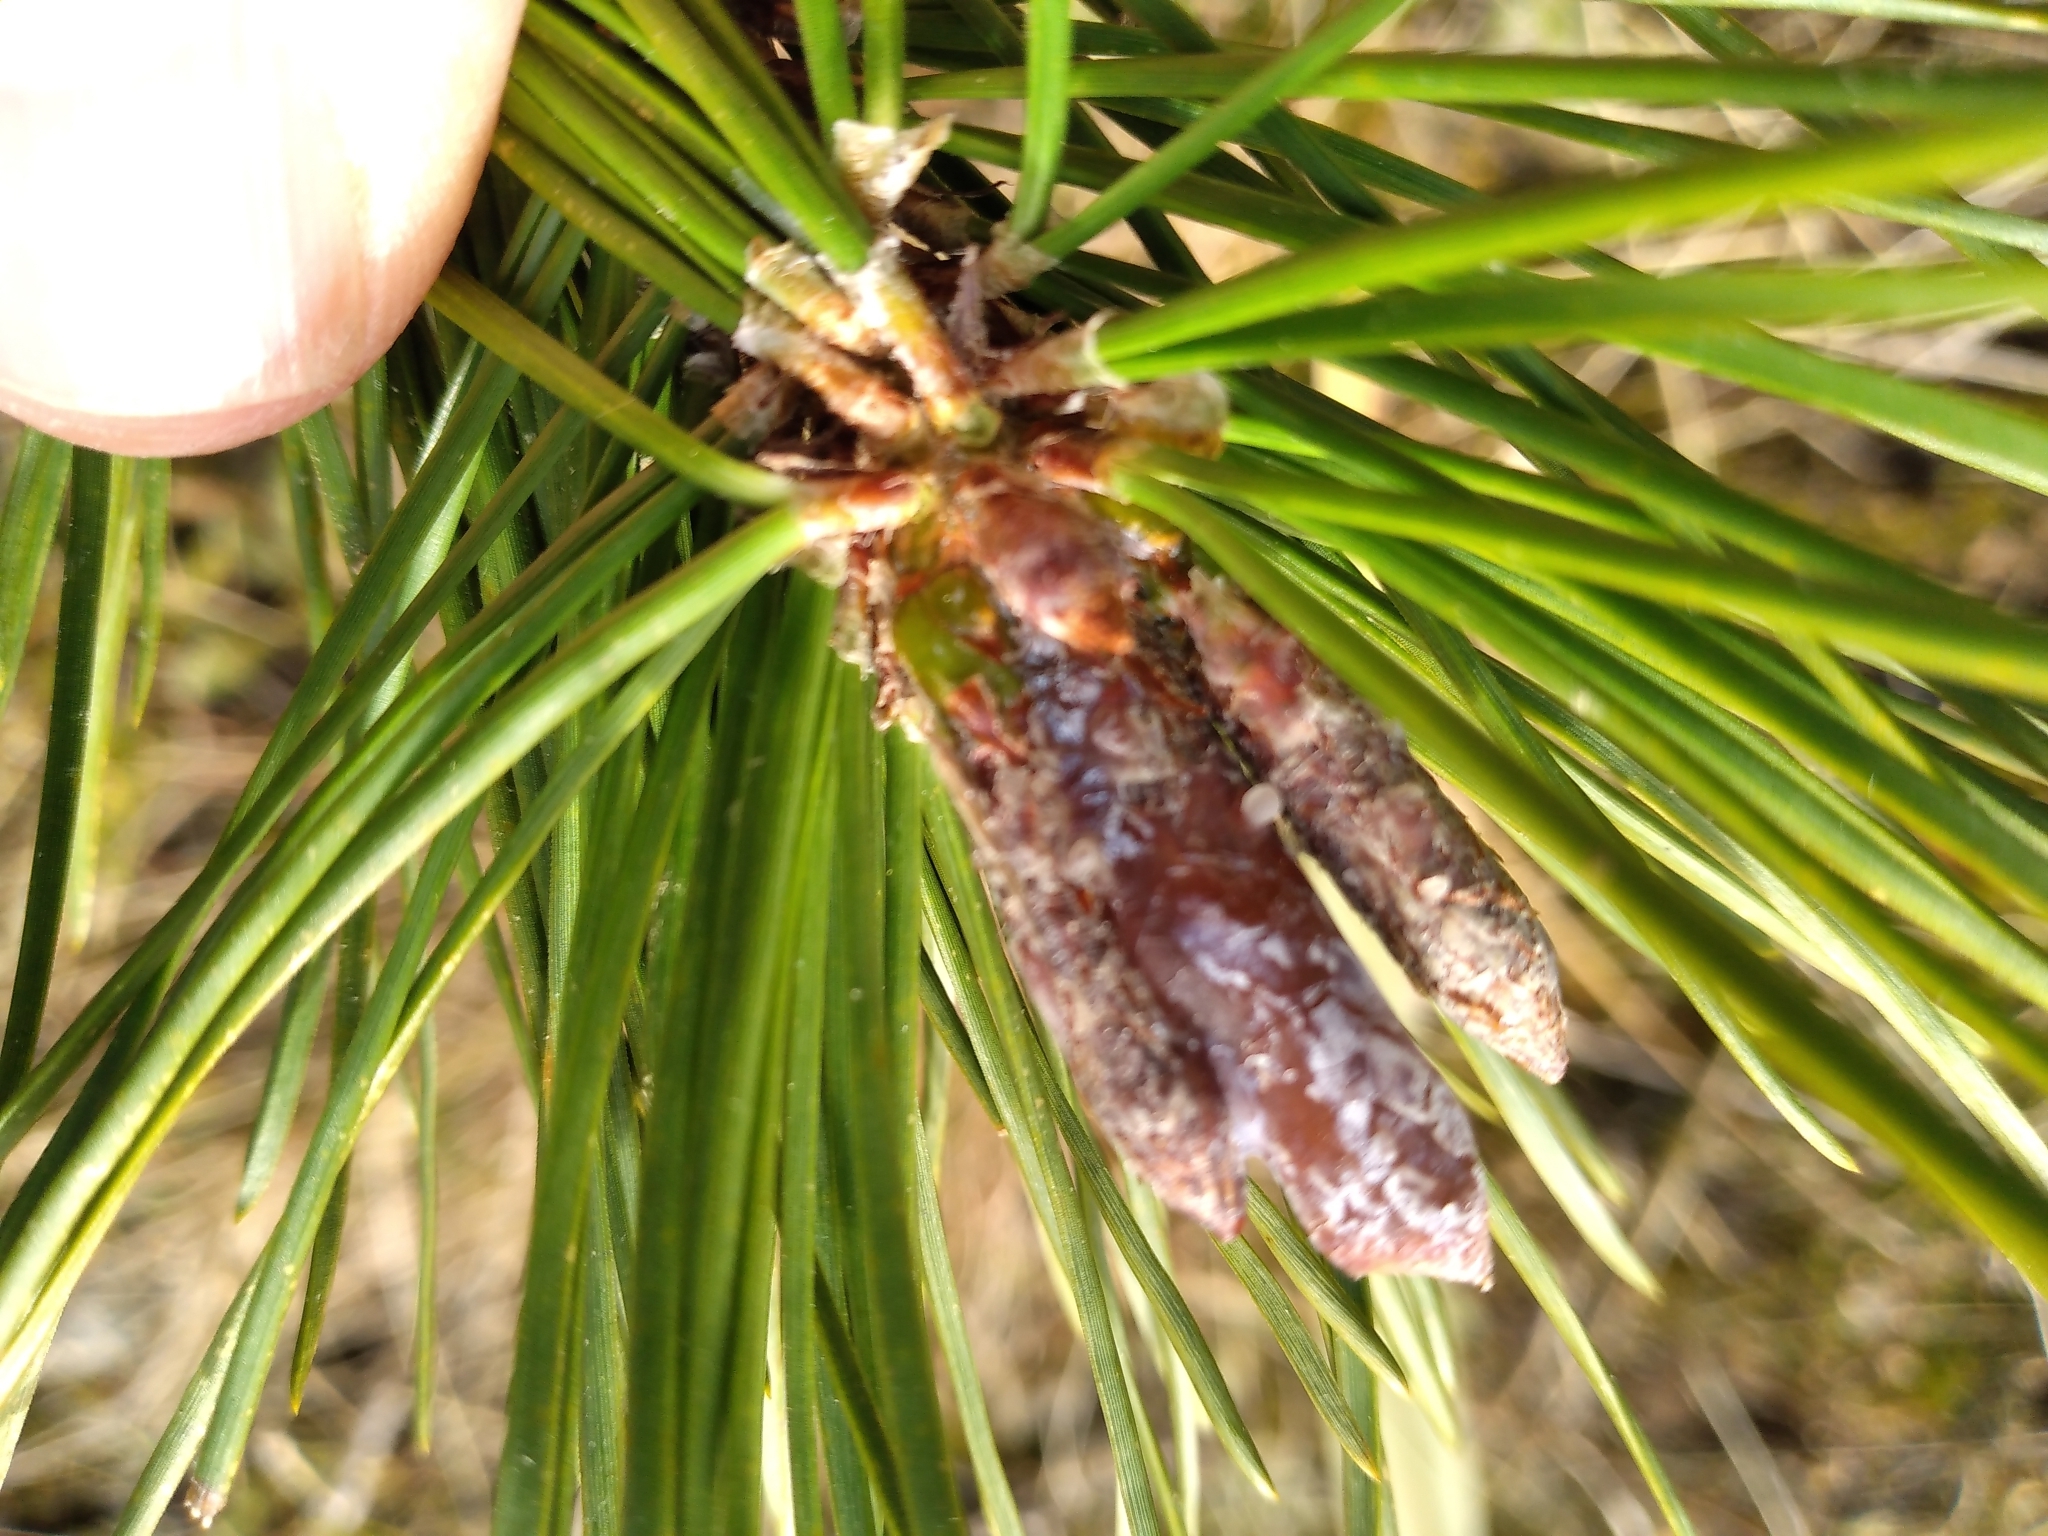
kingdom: Plantae
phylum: Tracheophyta
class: Pinopsida
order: Pinales
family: Pinaceae
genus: Pinus
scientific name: Pinus contorta
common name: Lodgepole pine
